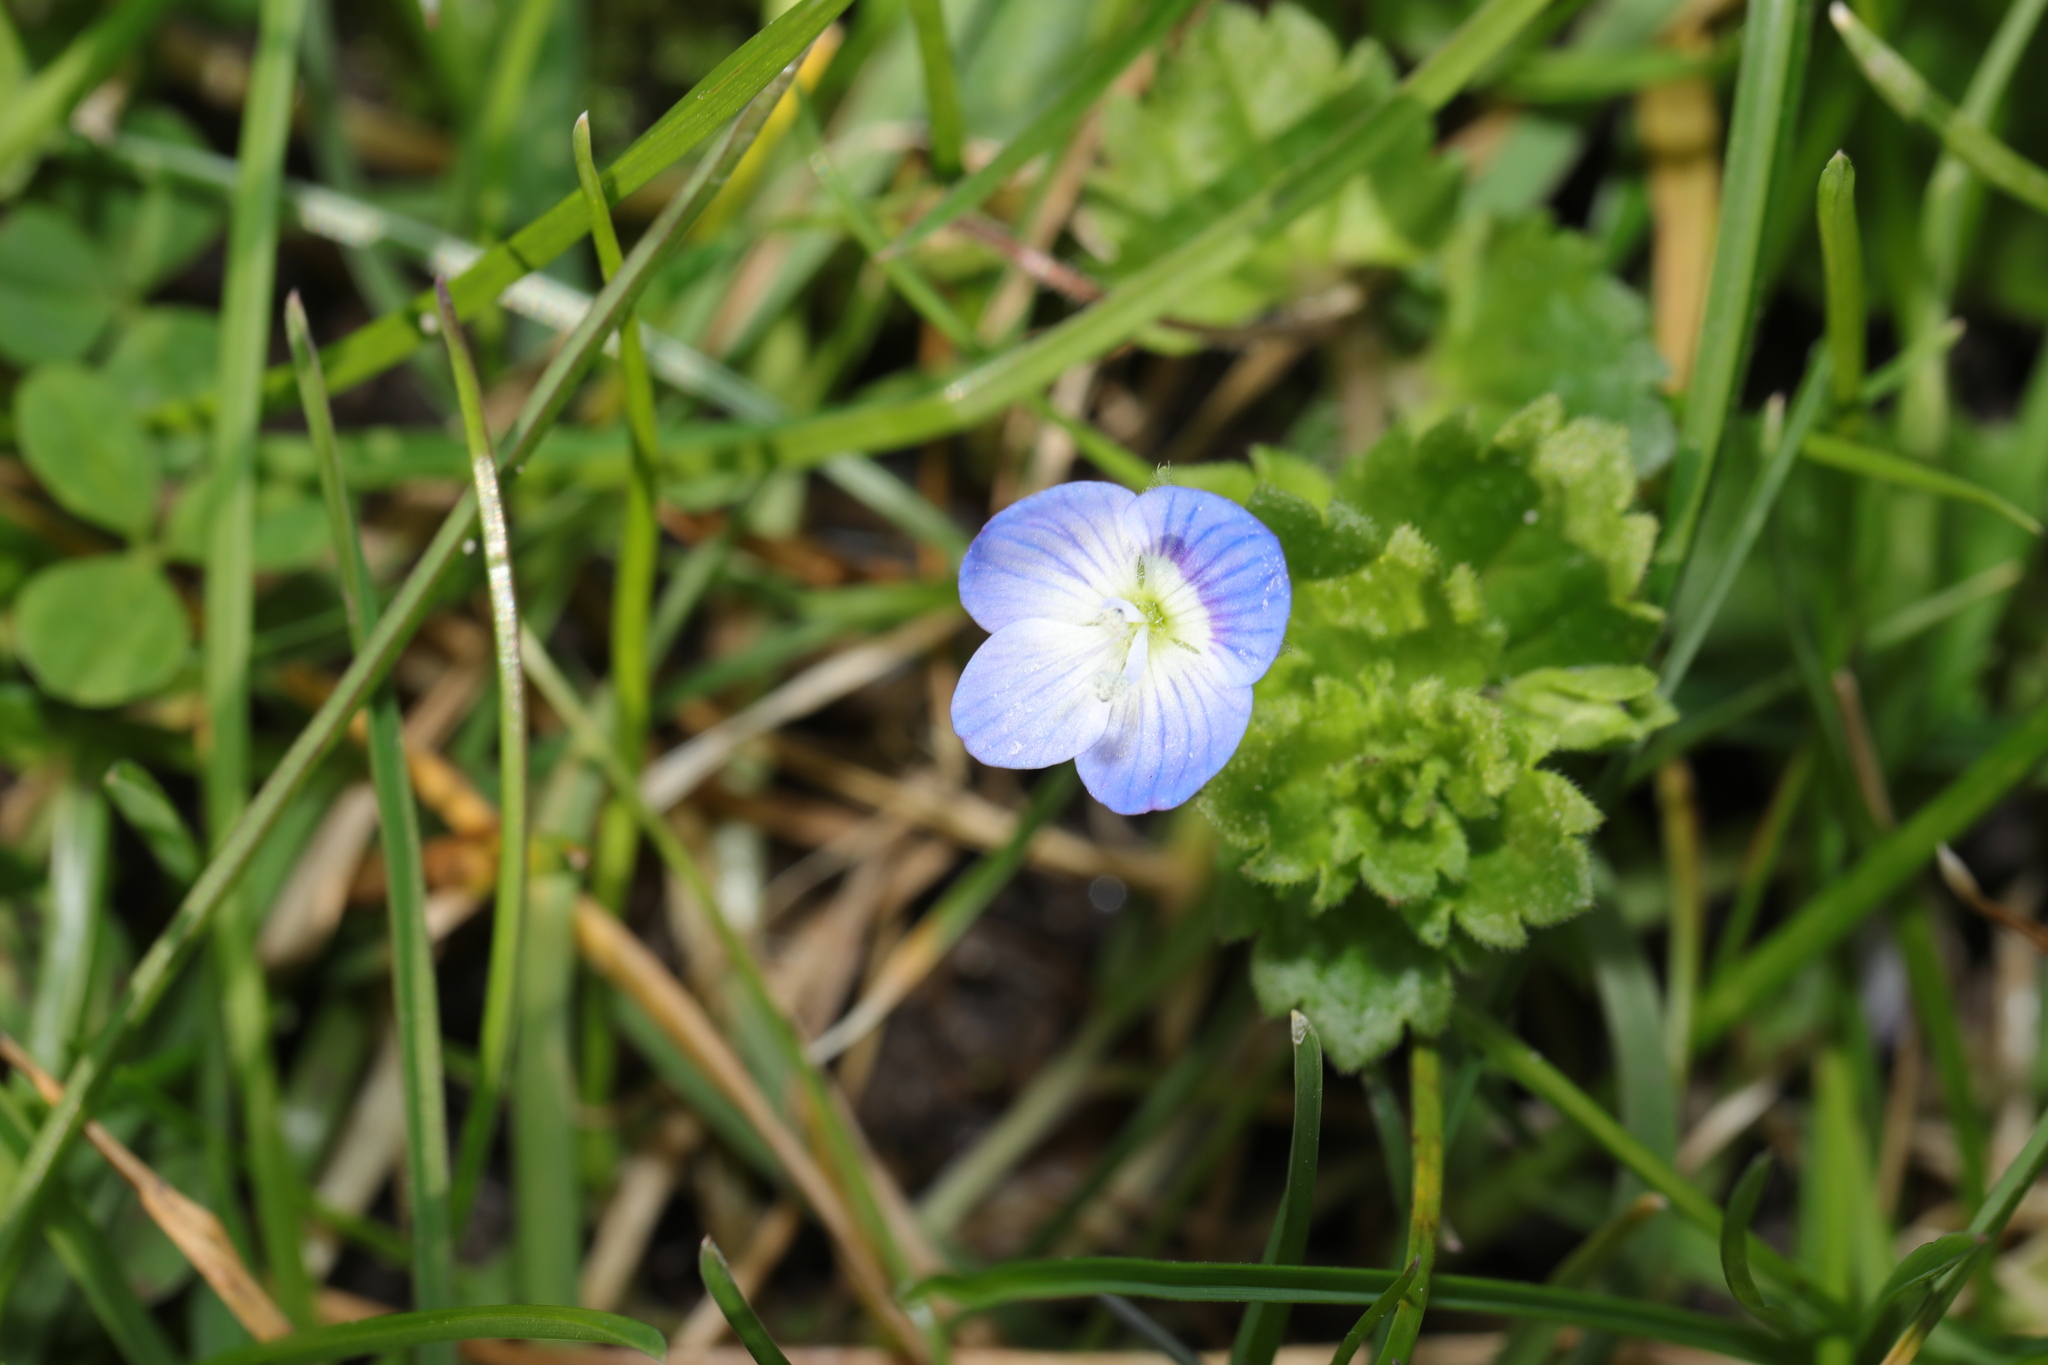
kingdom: Plantae
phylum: Tracheophyta
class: Magnoliopsida
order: Lamiales
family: Plantaginaceae
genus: Veronica
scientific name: Veronica persica
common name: Common field-speedwell
